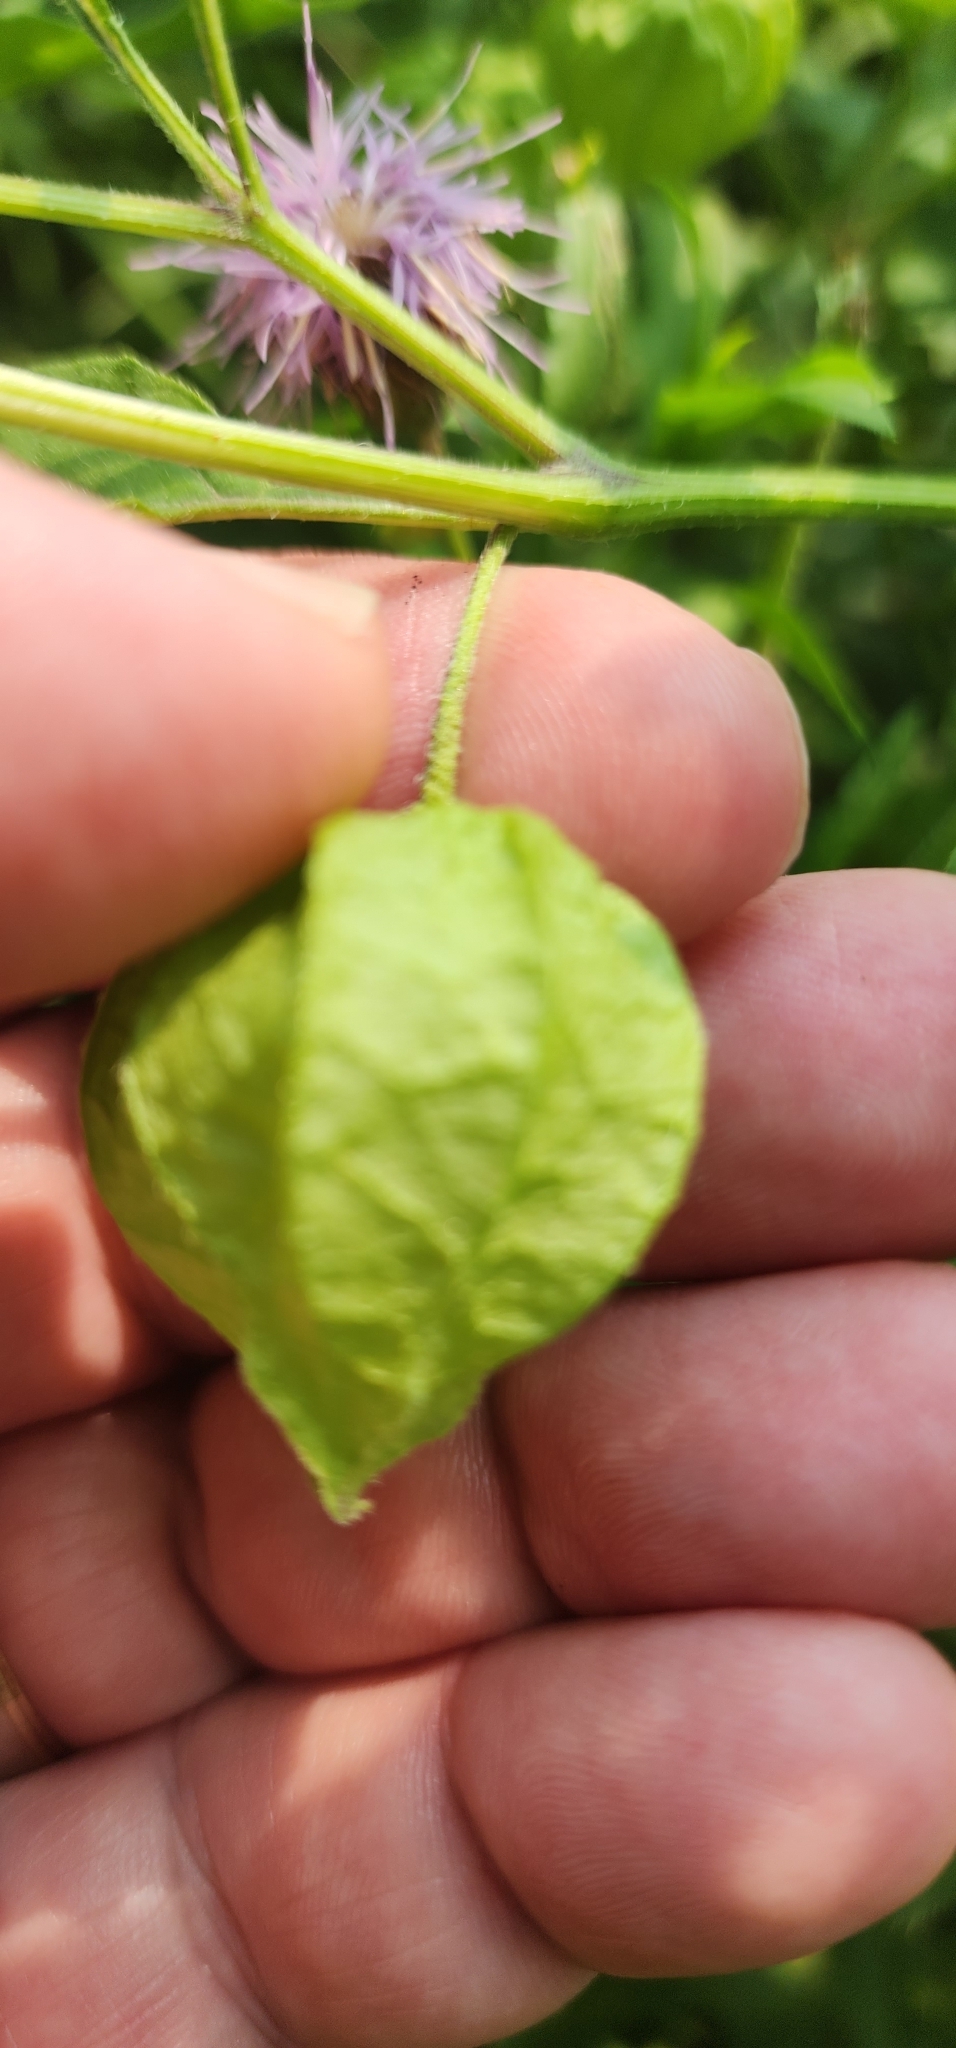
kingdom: Plantae
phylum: Tracheophyta
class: Magnoliopsida
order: Solanales
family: Solanaceae
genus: Physalis
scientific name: Physalis longifolia
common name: Common ground-cherry
